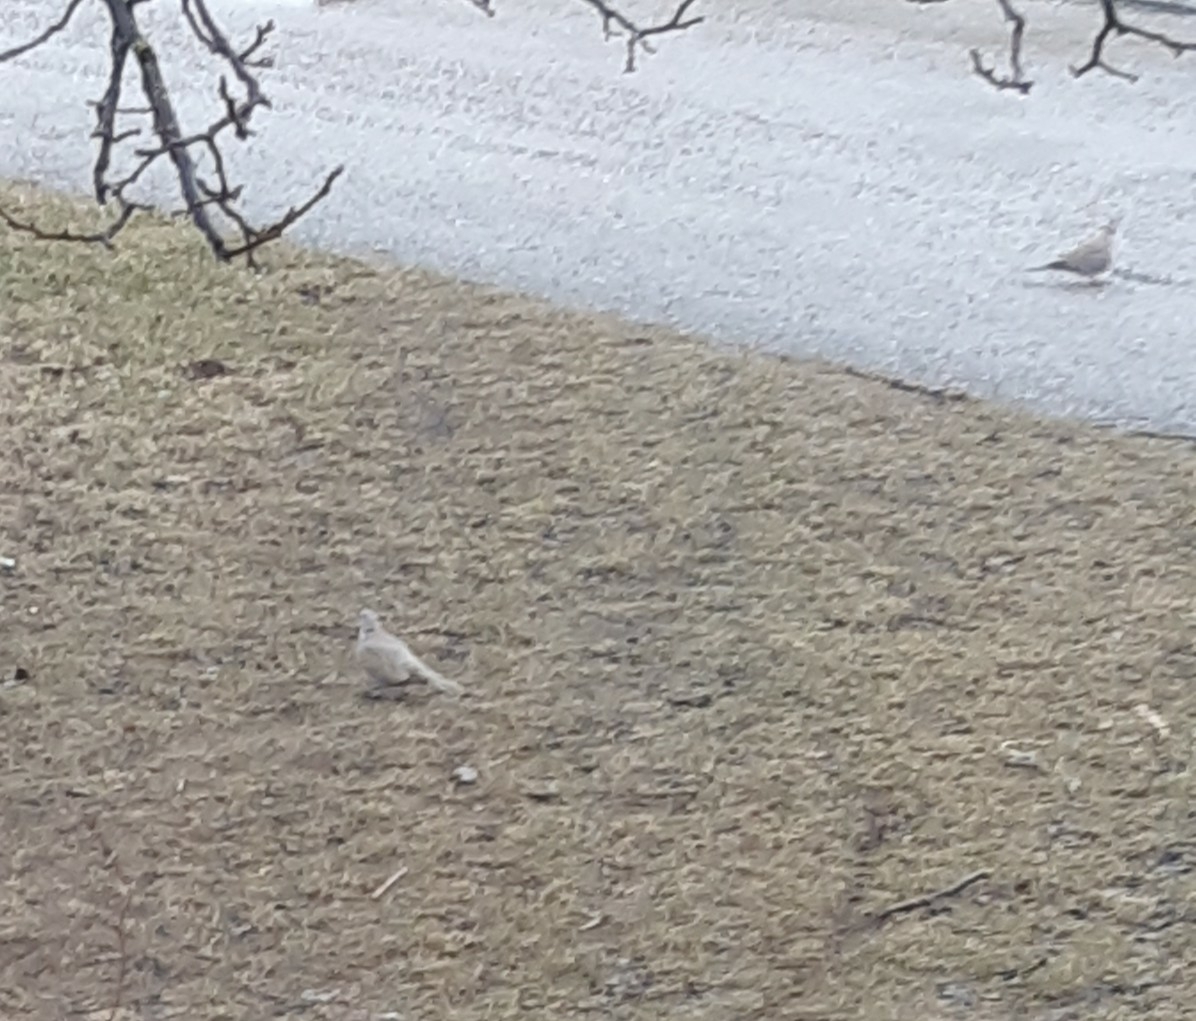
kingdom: Animalia
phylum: Chordata
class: Aves
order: Columbiformes
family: Columbidae
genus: Streptopelia
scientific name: Streptopelia decaocto
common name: Eurasian collared dove
